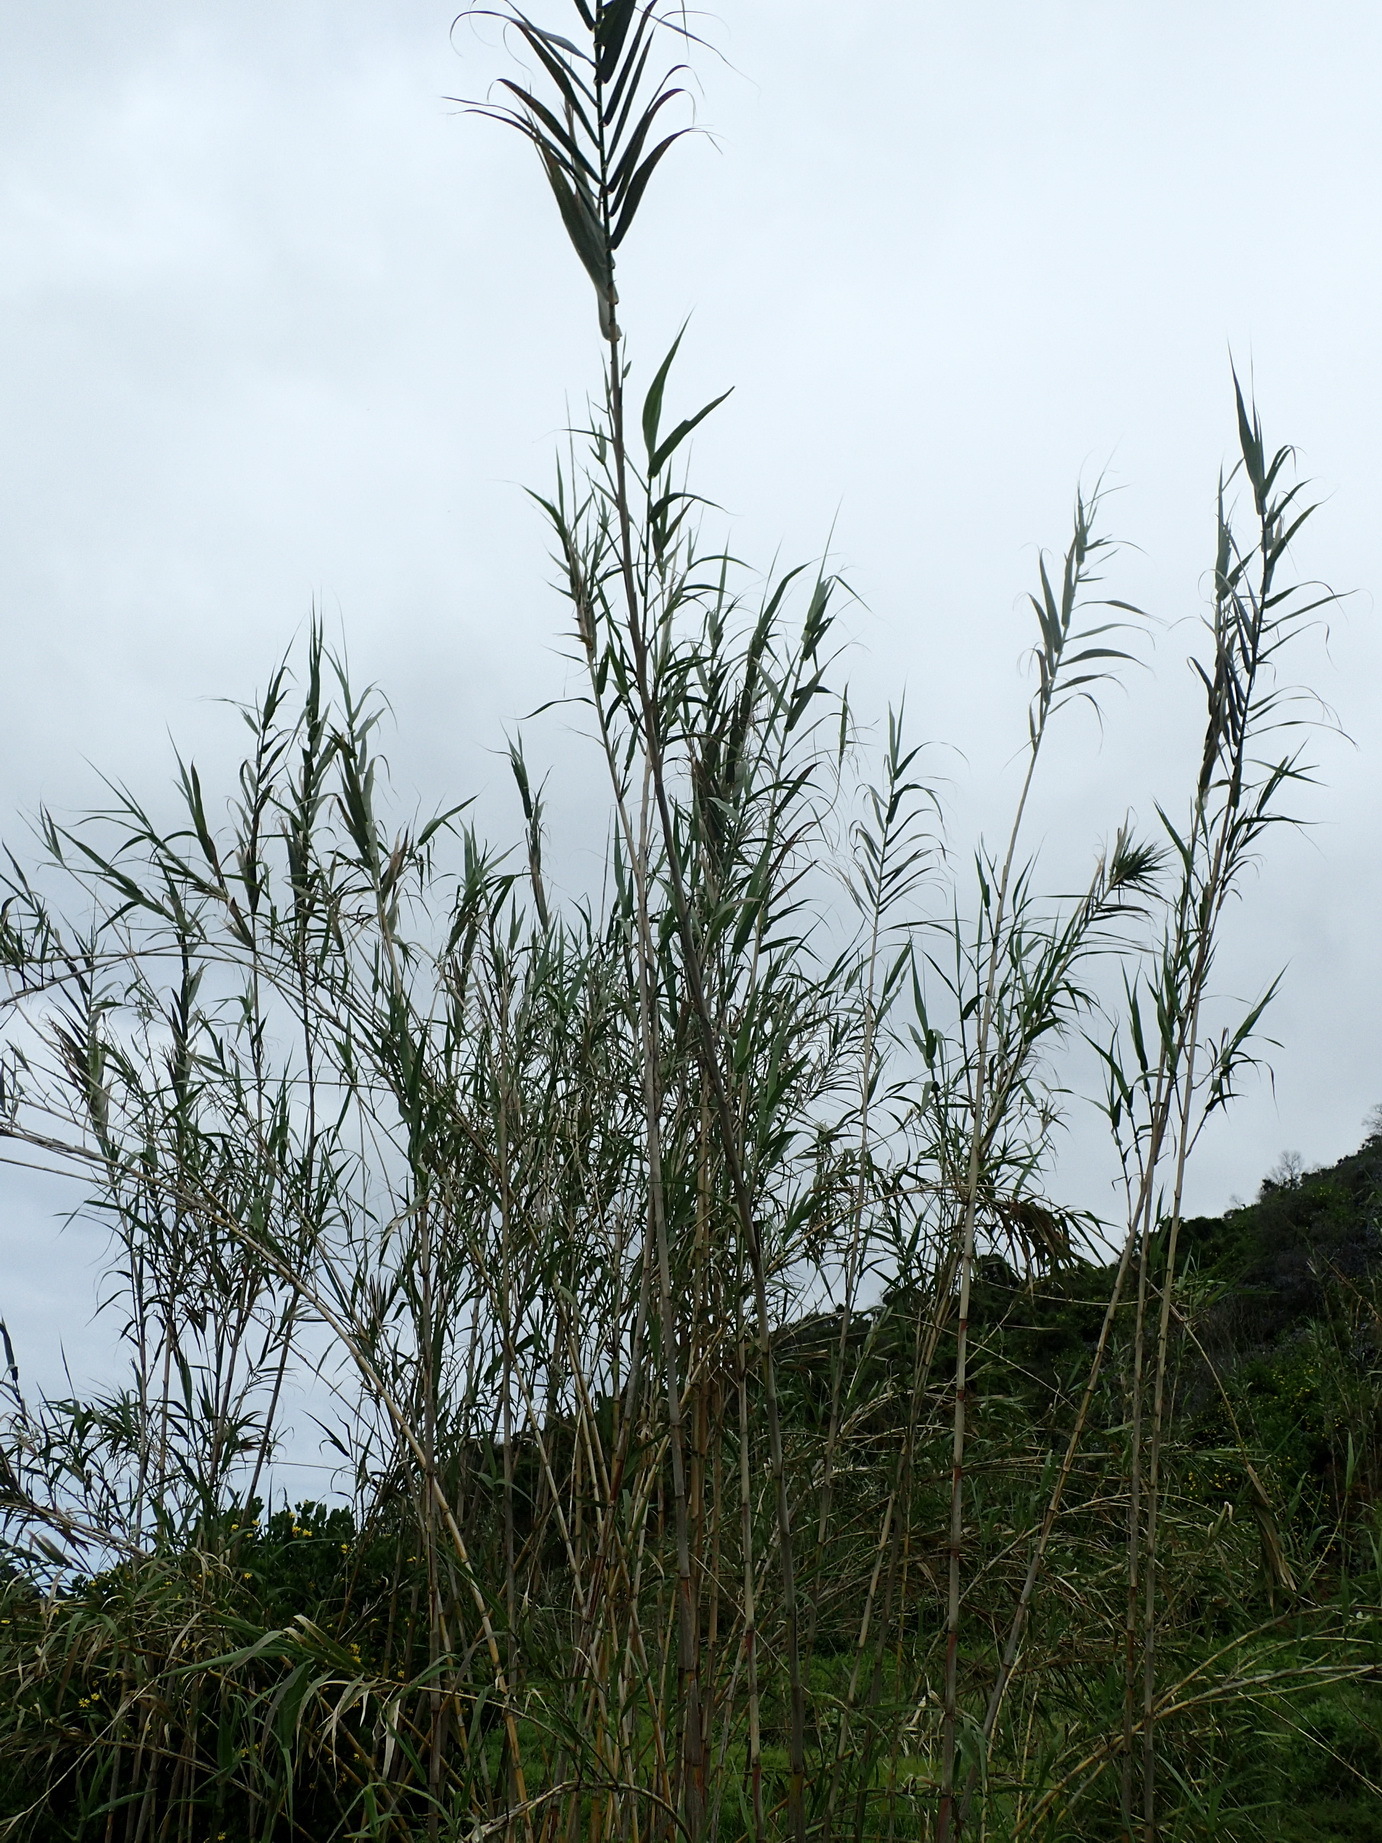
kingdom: Plantae
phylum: Tracheophyta
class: Liliopsida
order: Poales
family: Poaceae
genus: Arundo
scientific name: Arundo donax
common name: Giant reed
